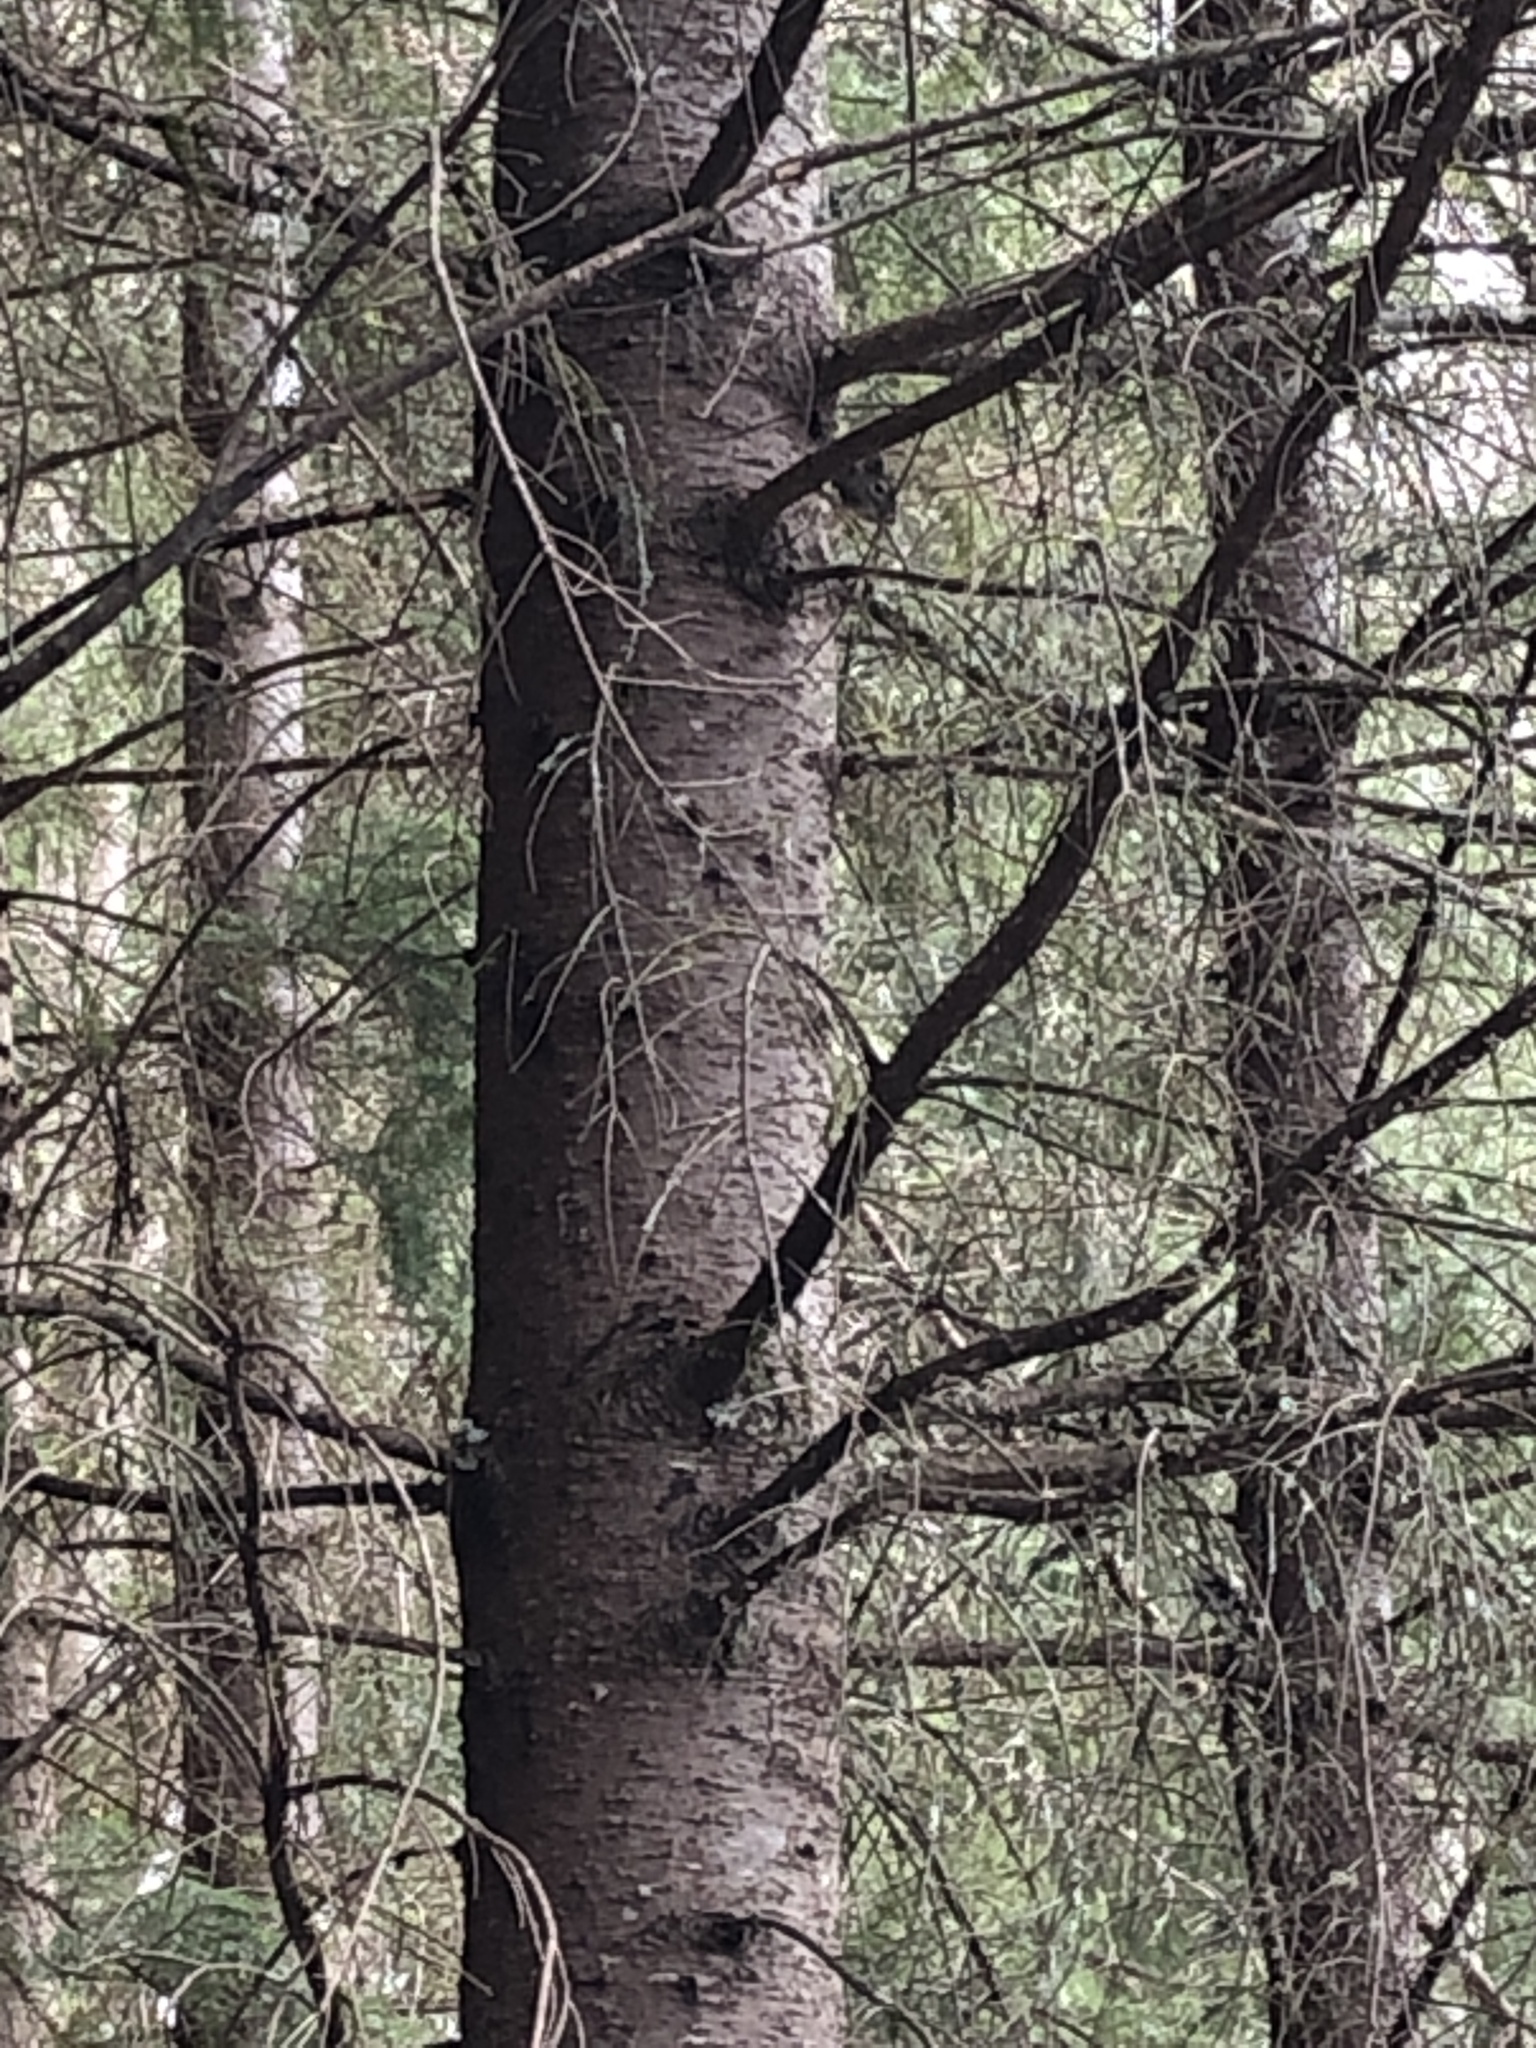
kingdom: Animalia
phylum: Chordata
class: Mammalia
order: Rodentia
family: Sciuridae
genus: Tamiasciurus
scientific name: Tamiasciurus douglasii
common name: Douglas's squirrel
